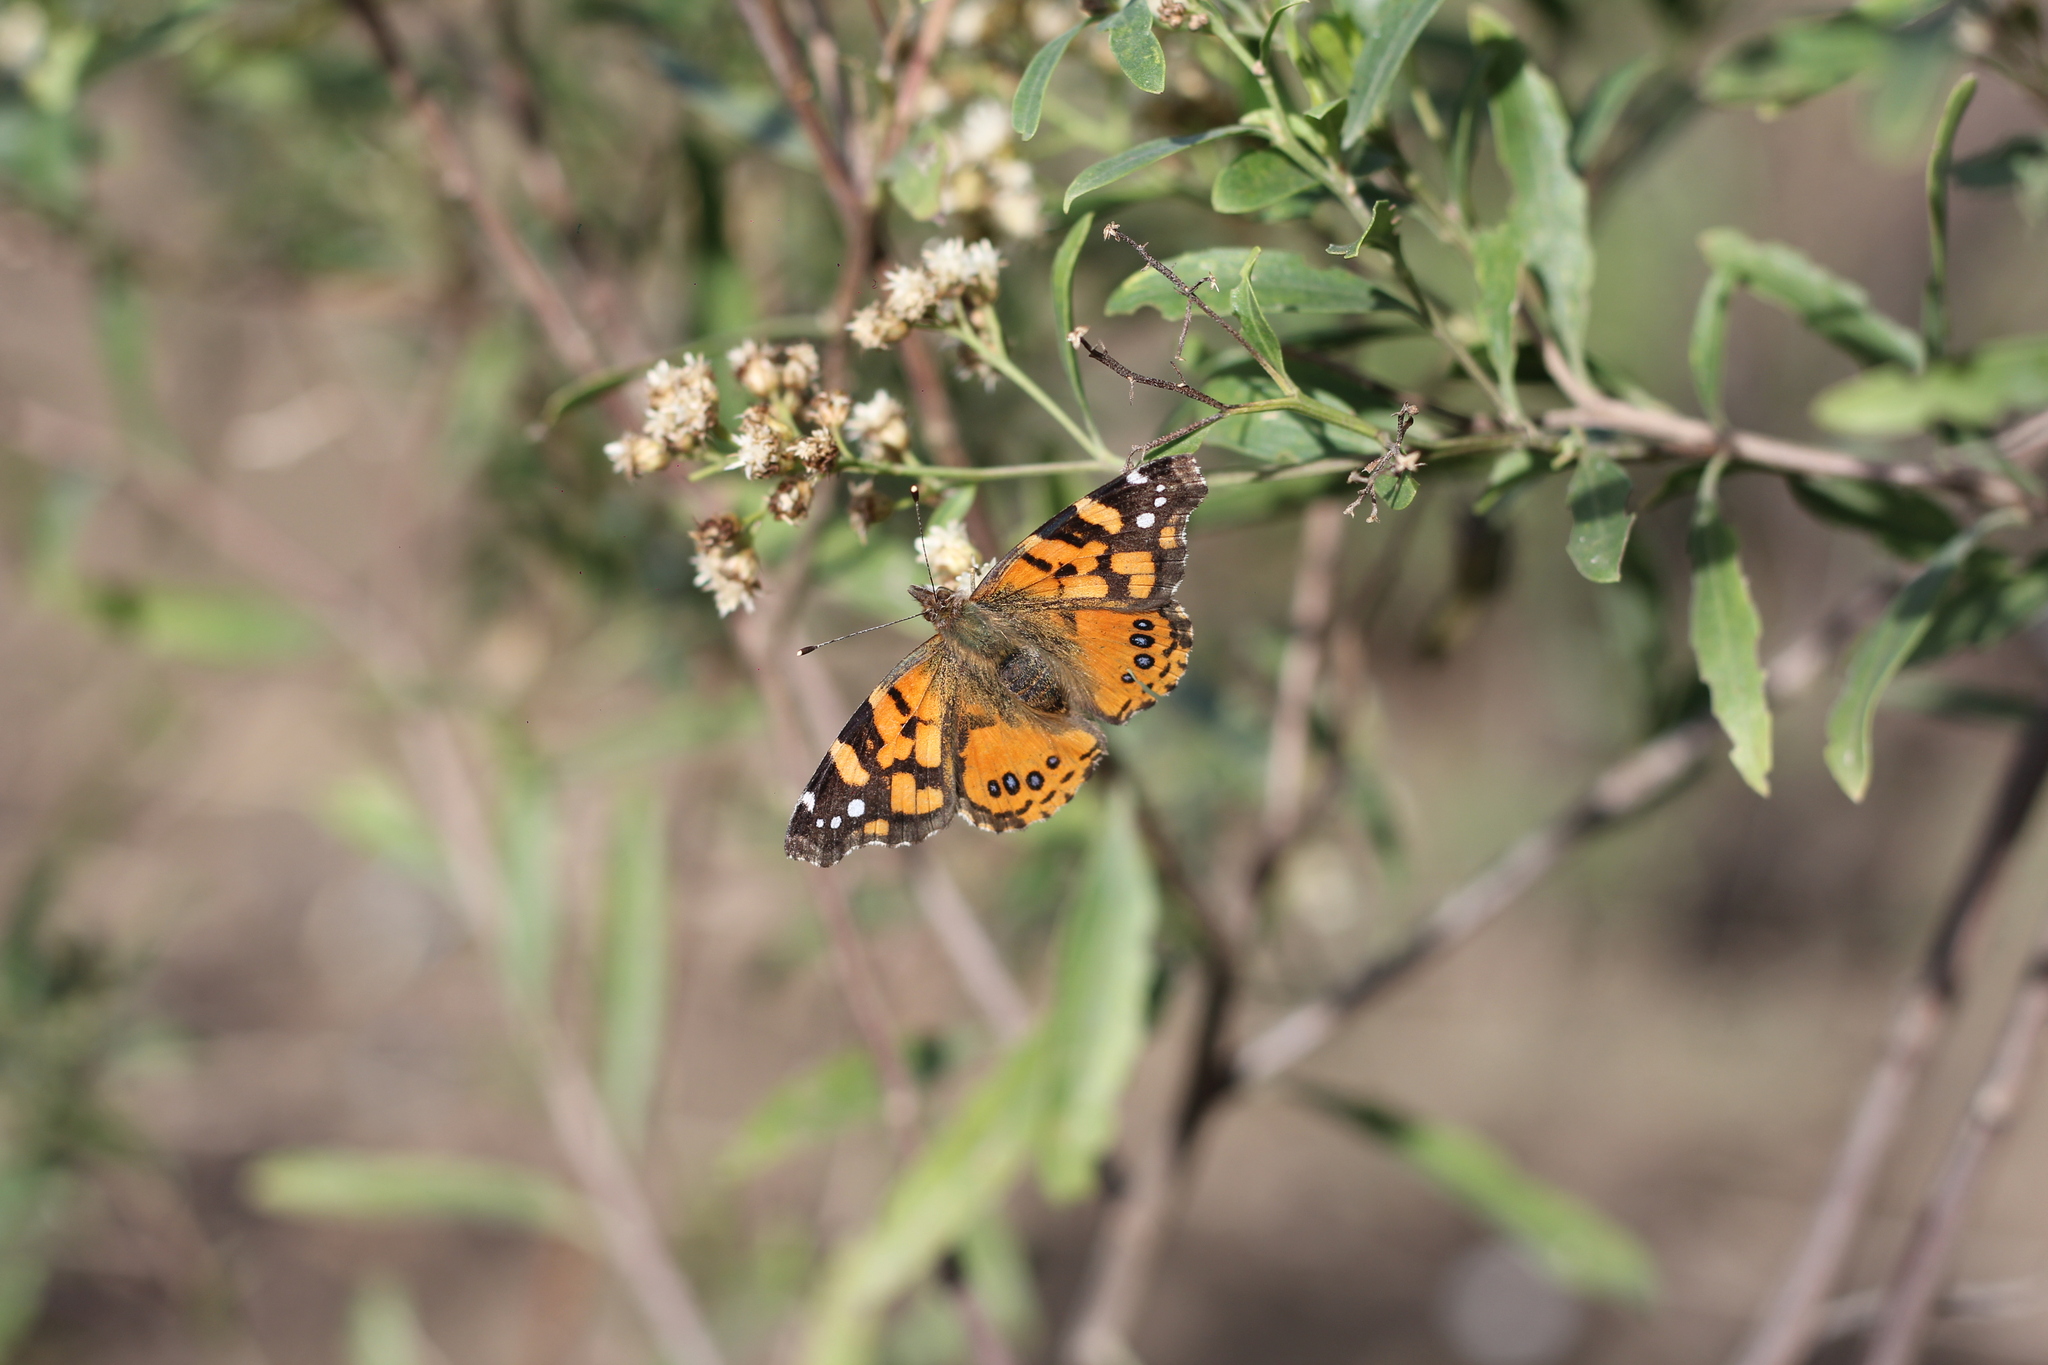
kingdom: Animalia
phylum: Arthropoda
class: Insecta
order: Lepidoptera
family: Nymphalidae
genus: Vanessa
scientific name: Vanessa carye
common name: Subtropical lady
